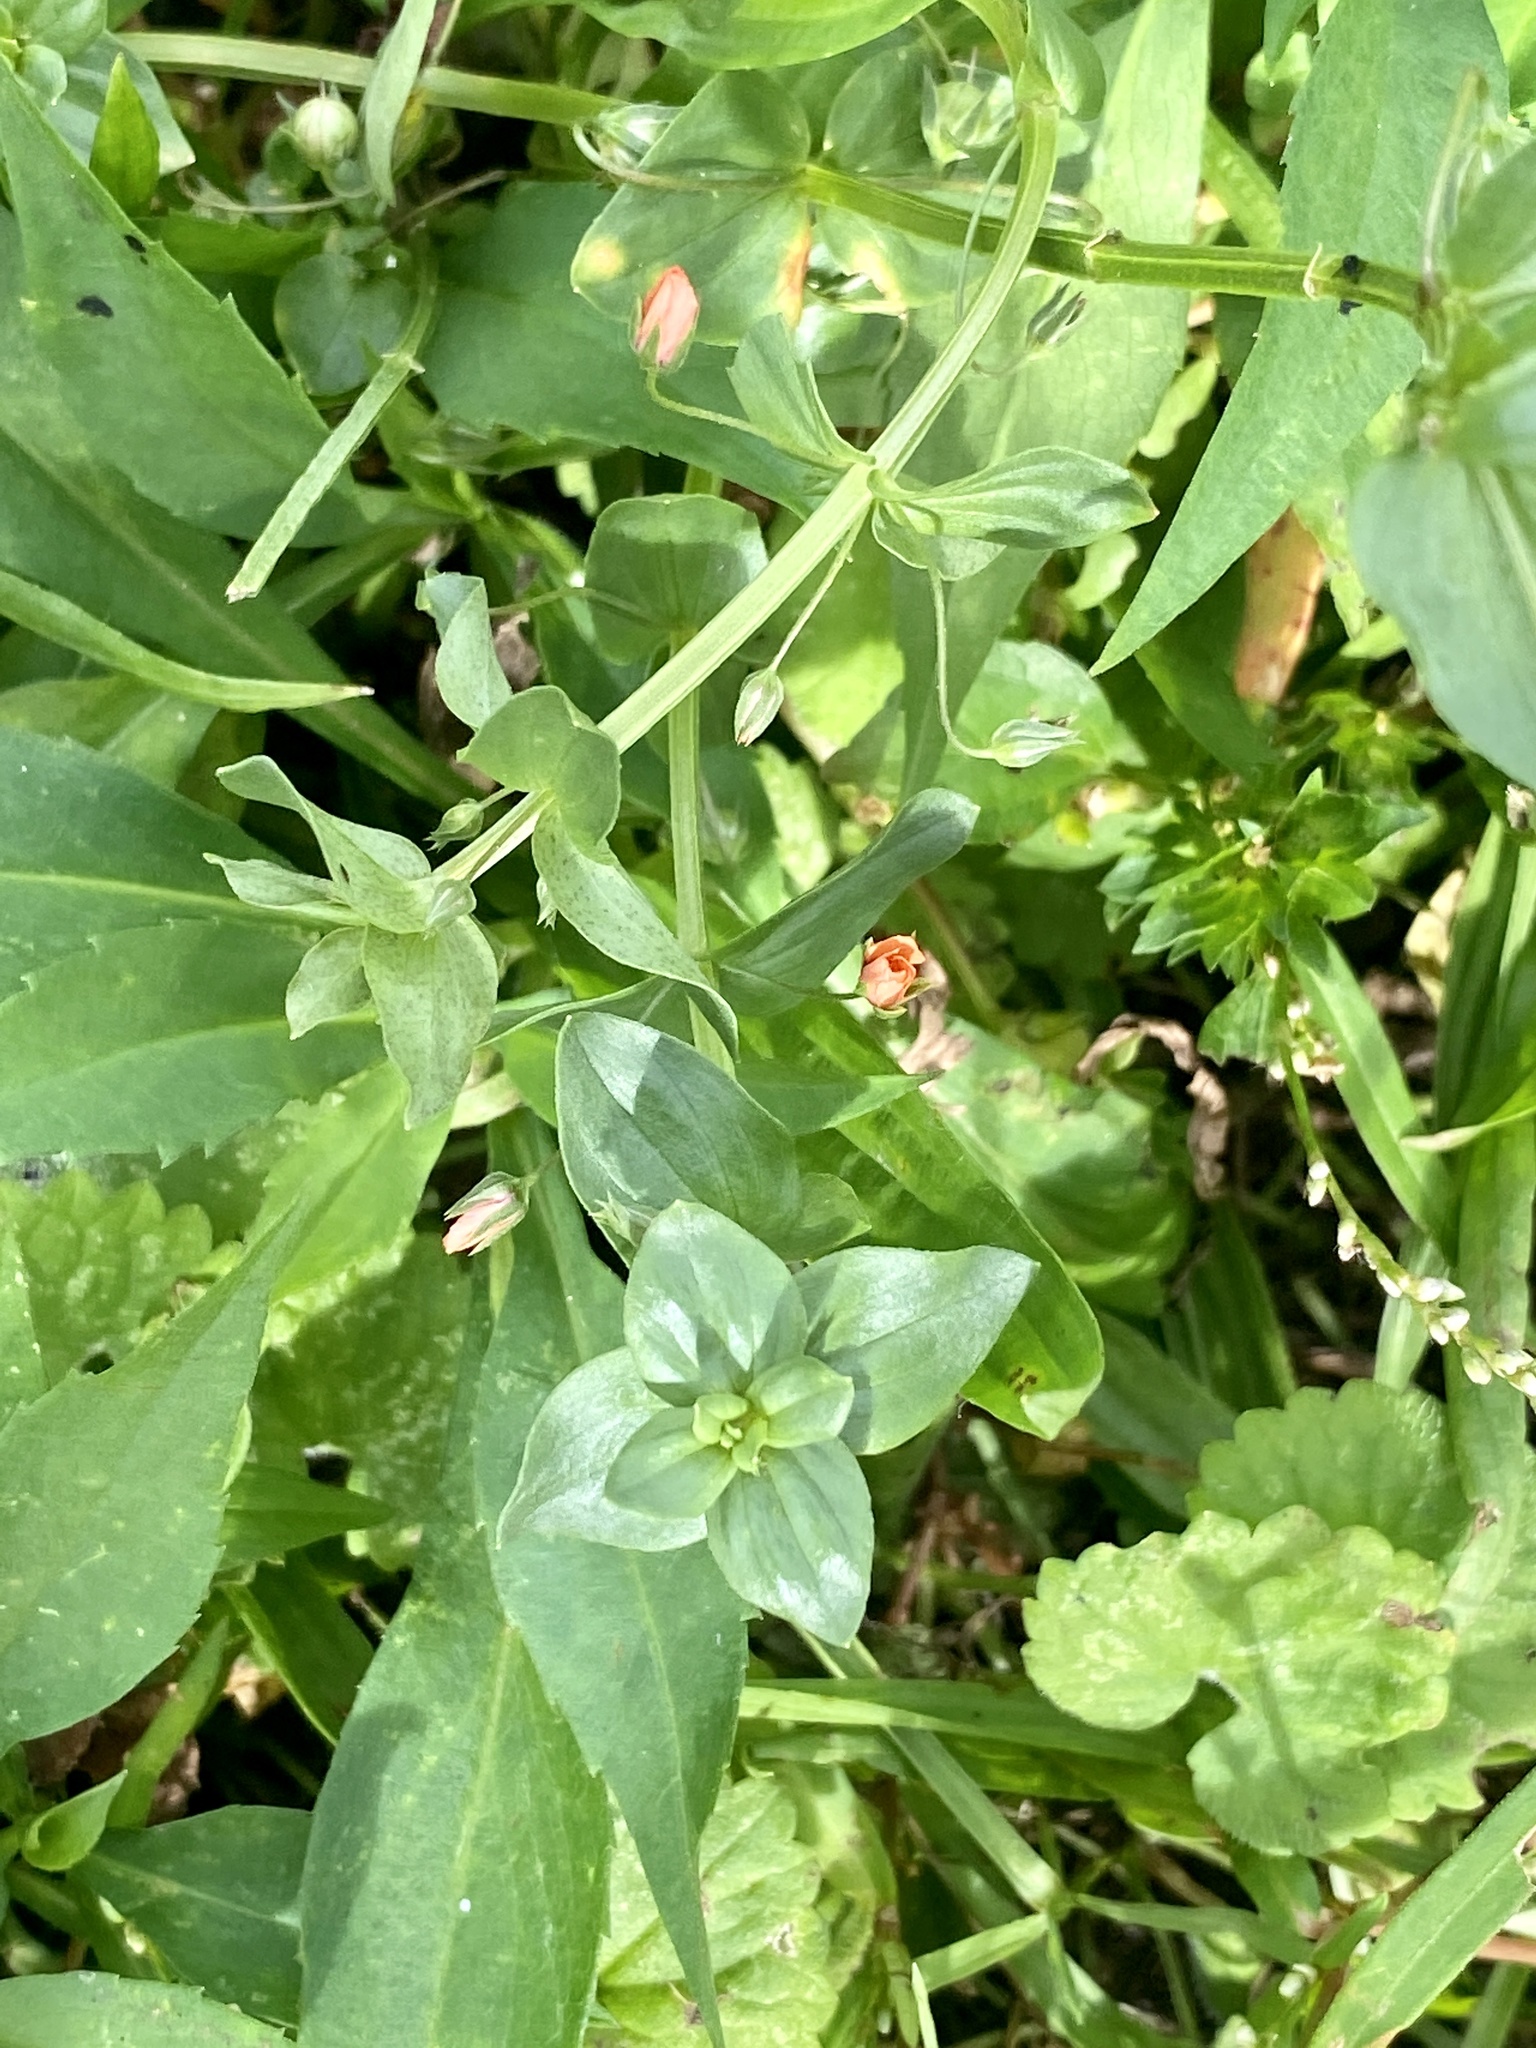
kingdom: Plantae
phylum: Tracheophyta
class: Magnoliopsida
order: Ericales
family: Primulaceae
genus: Lysimachia
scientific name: Lysimachia arvensis
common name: Scarlet pimpernel
